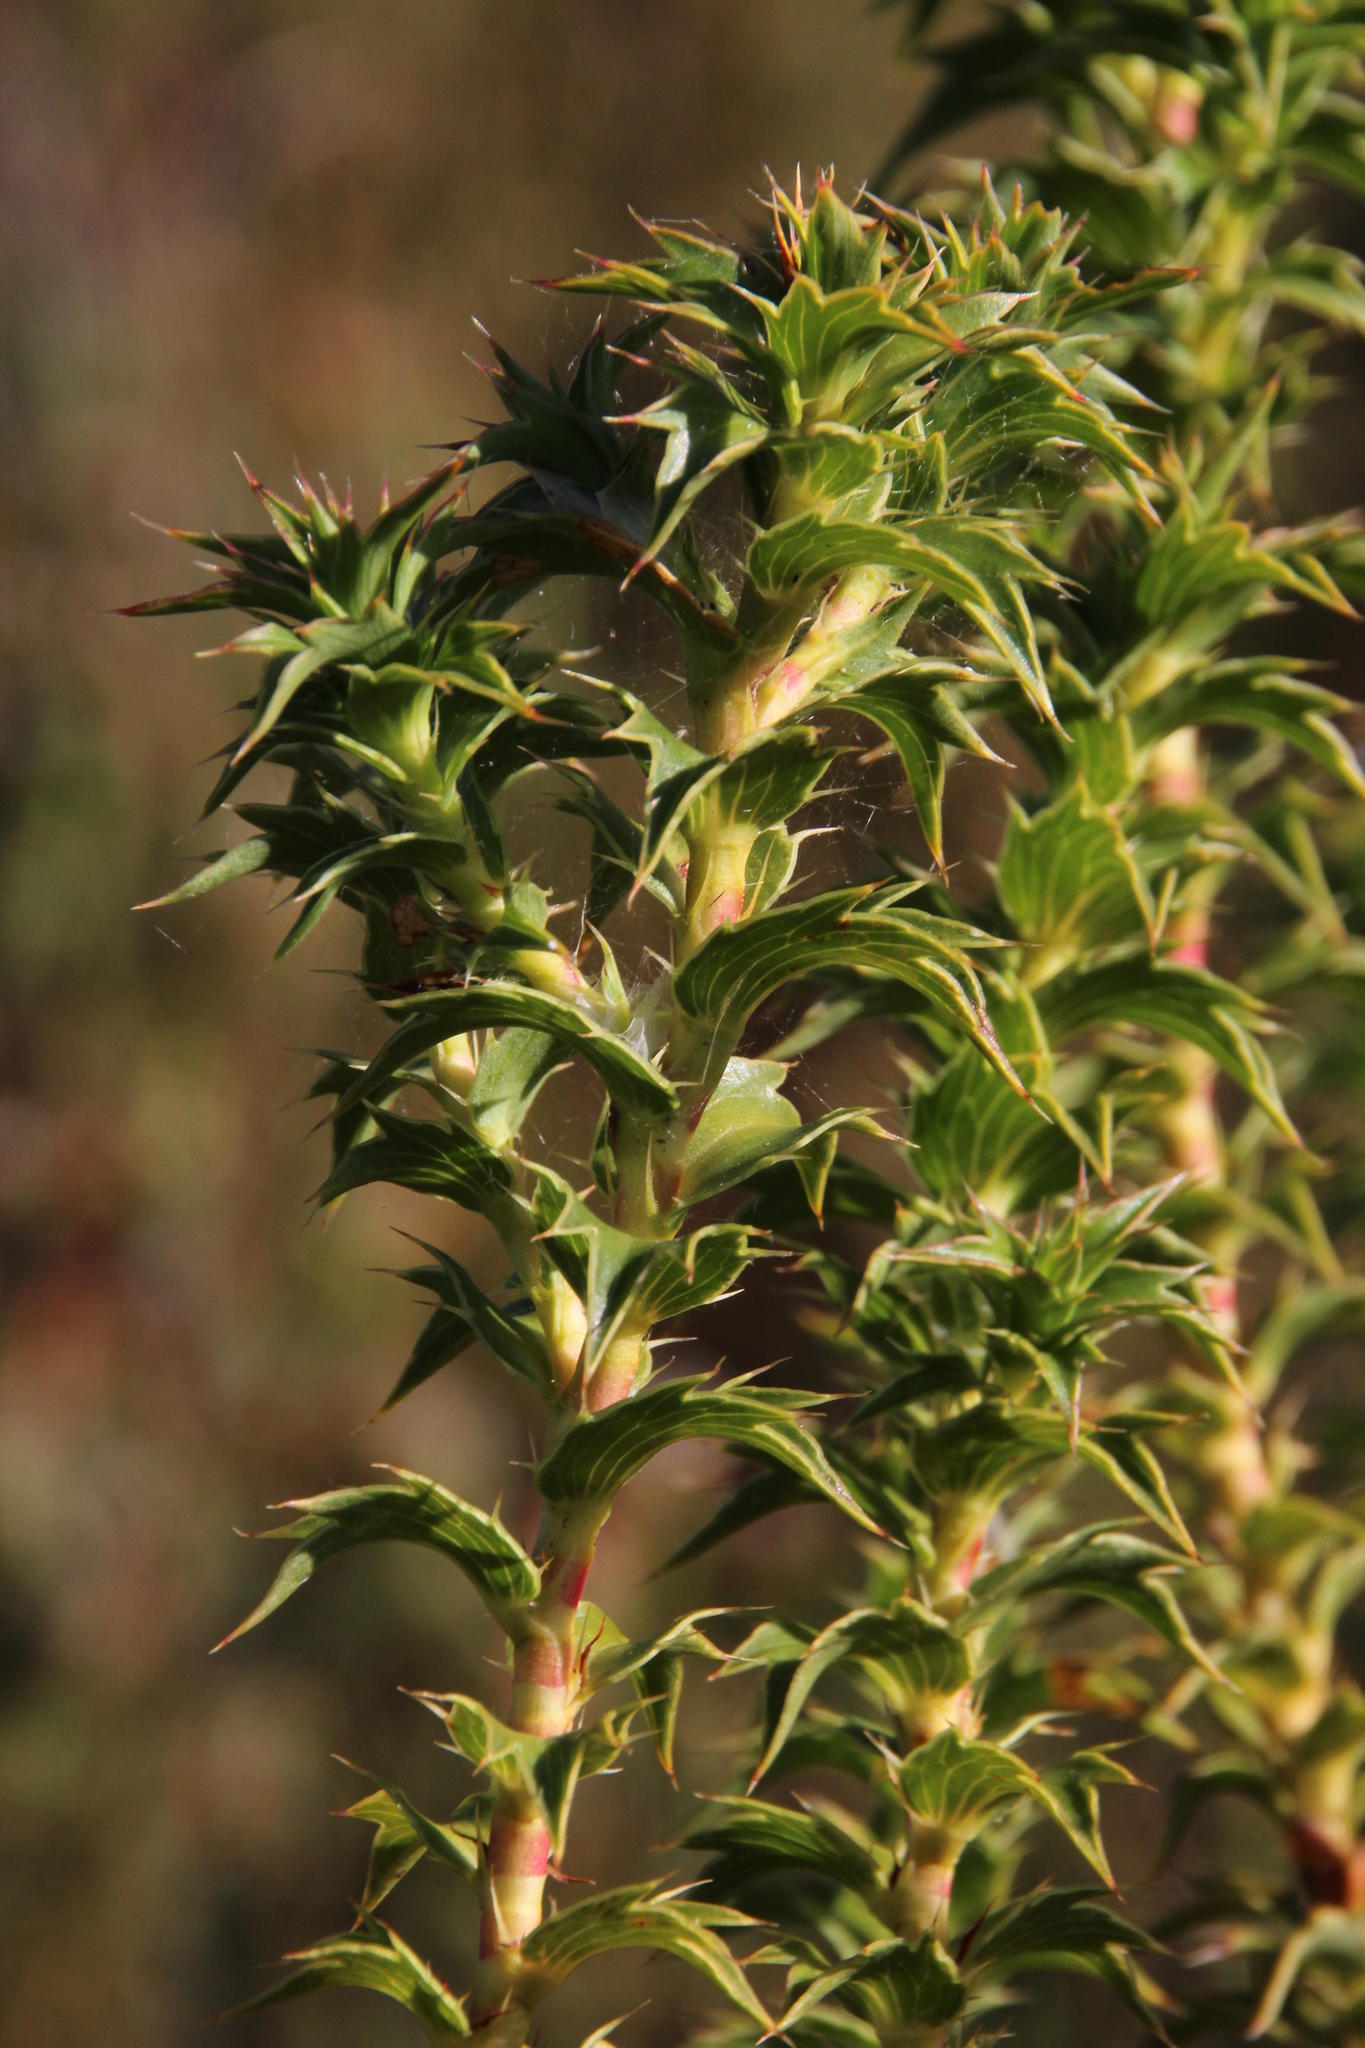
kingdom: Plantae
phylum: Tracheophyta
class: Magnoliopsida
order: Rosales
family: Rosaceae
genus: Cliffortia
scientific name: Cliffortia ceresana
